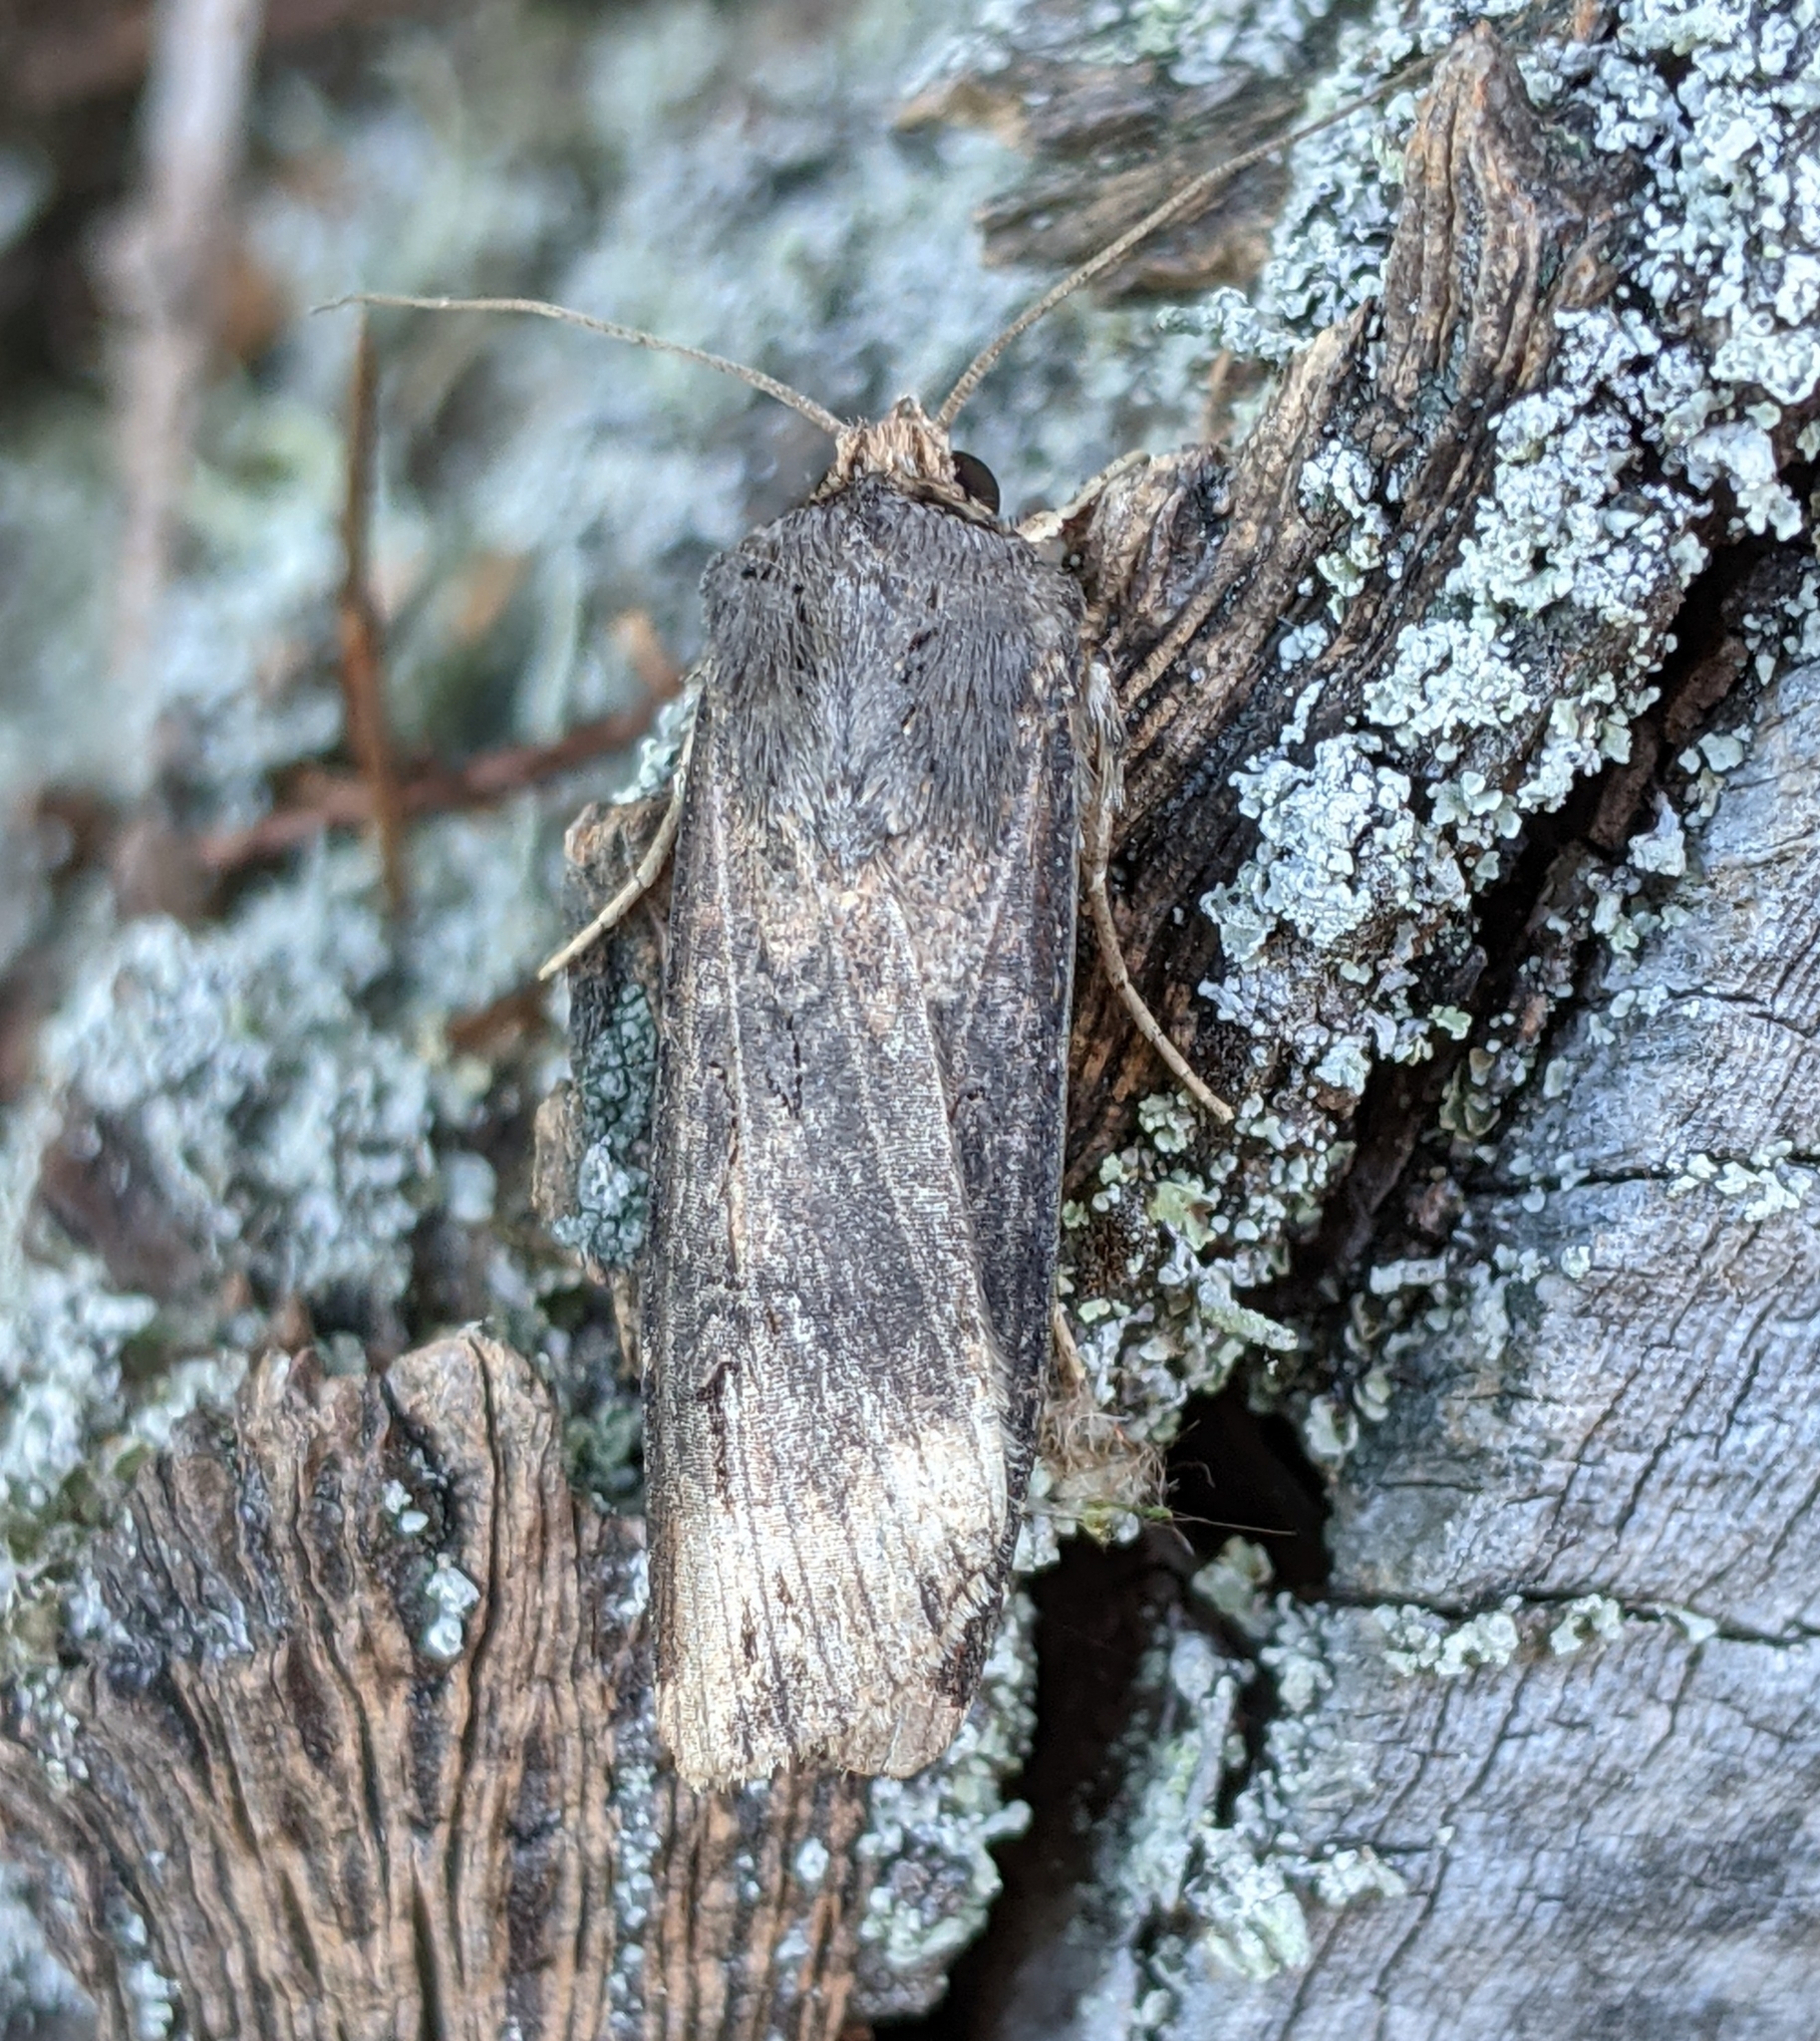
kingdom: Animalia
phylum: Arthropoda
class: Insecta
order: Lepidoptera
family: Noctuidae
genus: Agrotis
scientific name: Agrotis ipsilon
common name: Dark sword-grass
